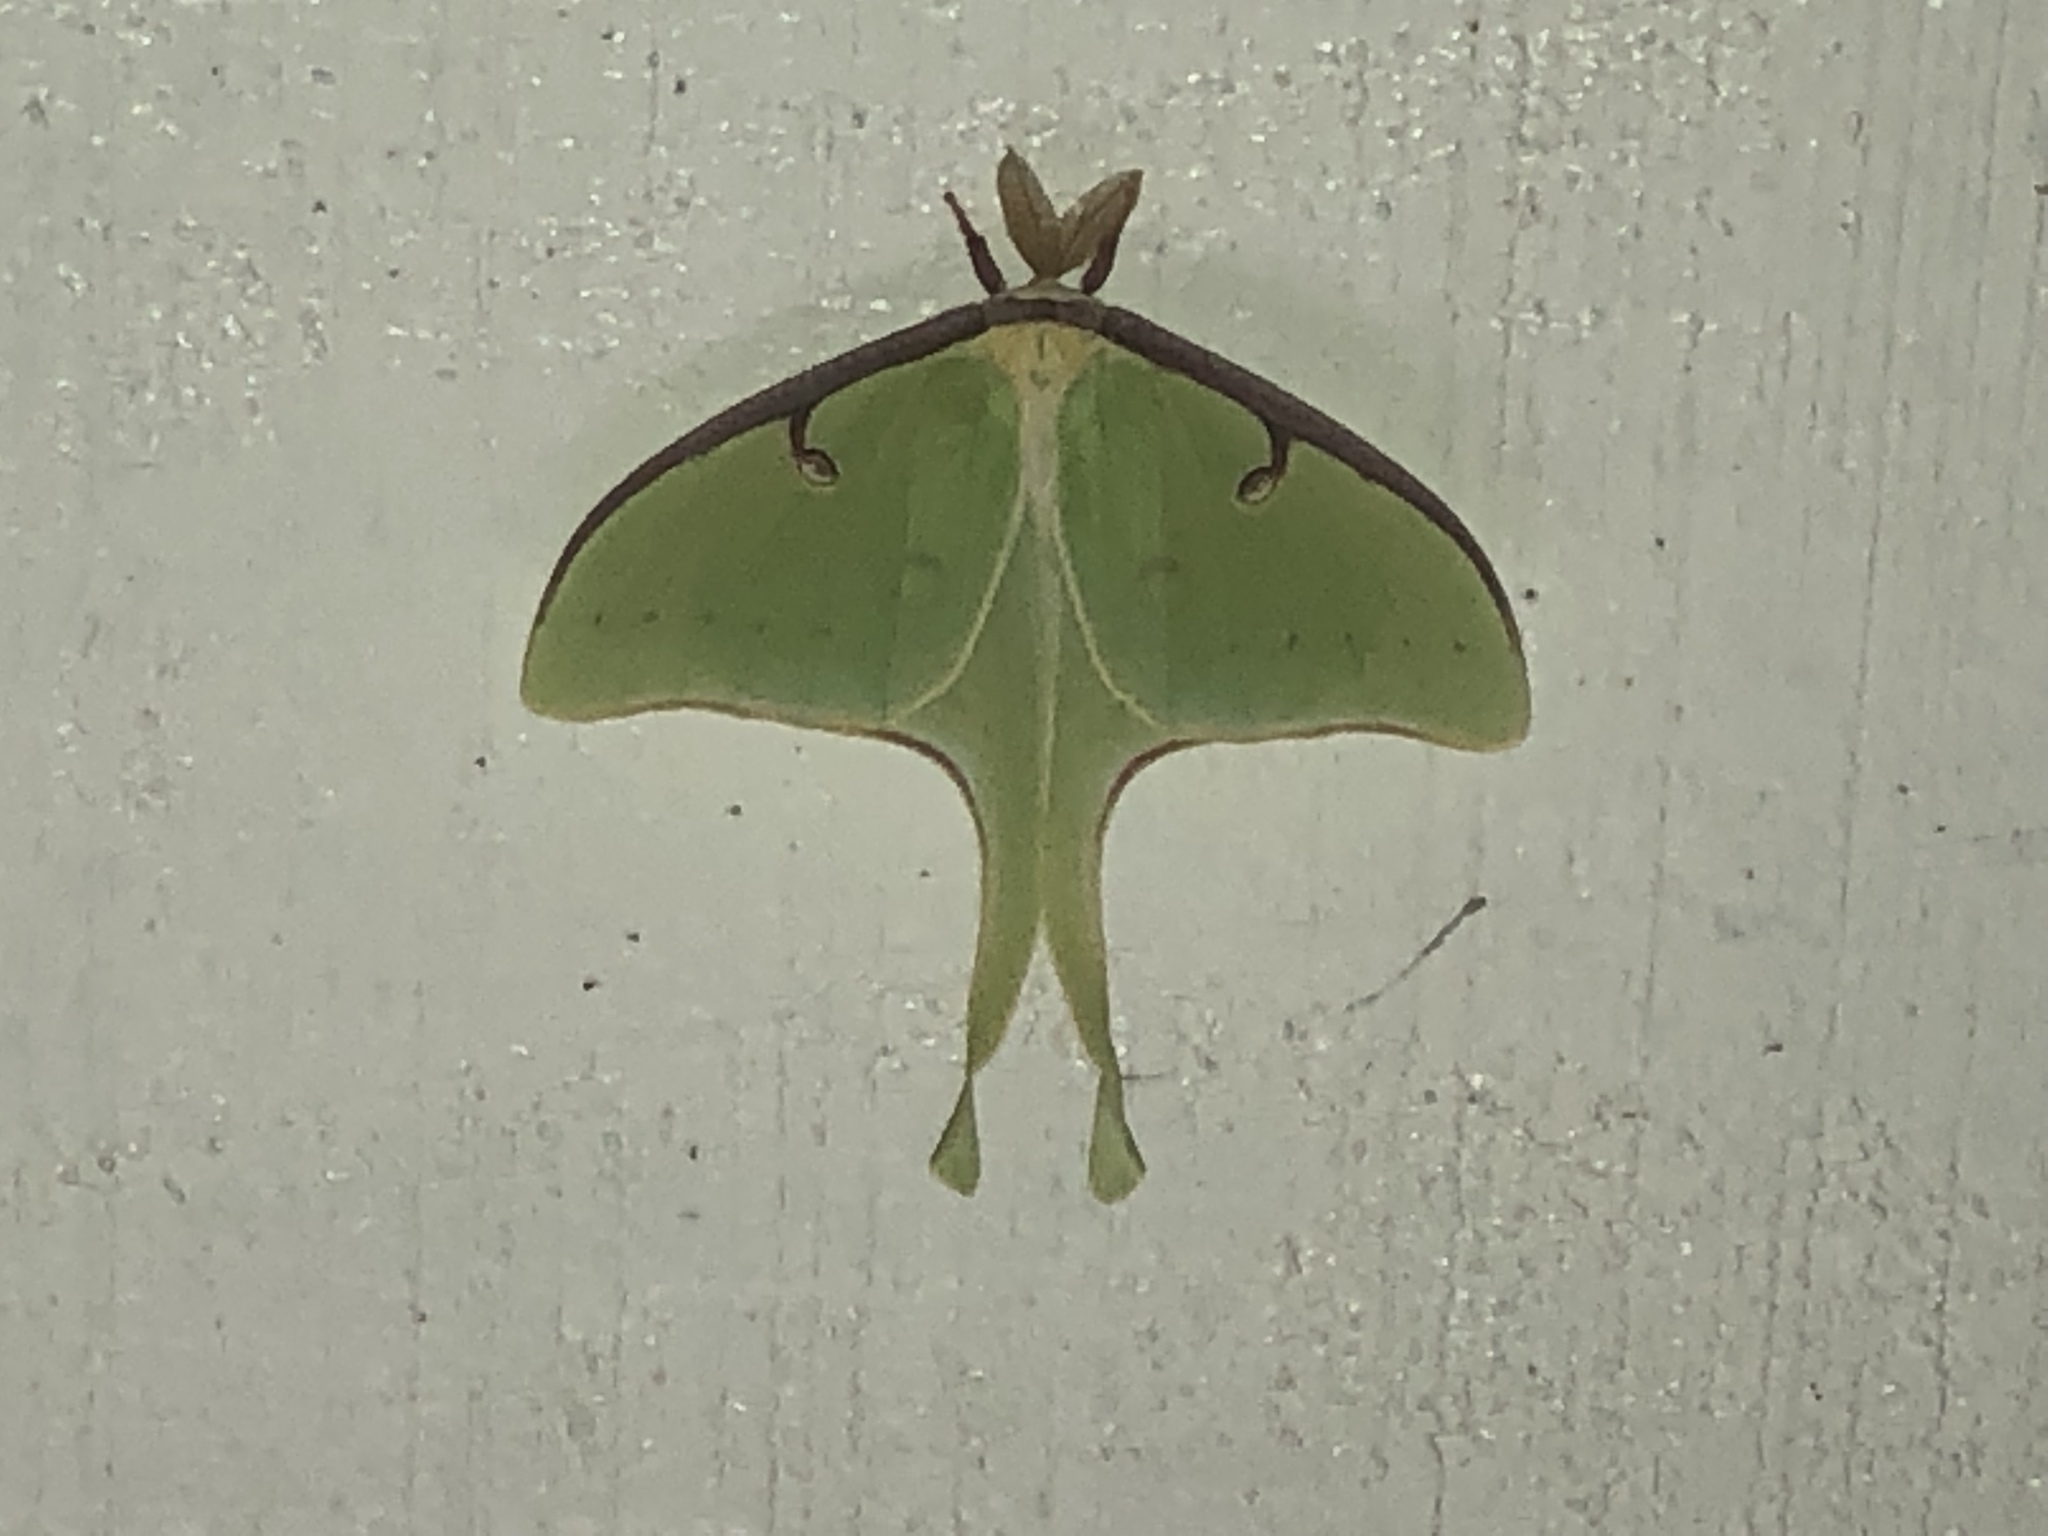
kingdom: Animalia
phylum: Arthropoda
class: Insecta
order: Lepidoptera
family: Saturniidae
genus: Actias
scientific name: Actias luna
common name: Luna moth
